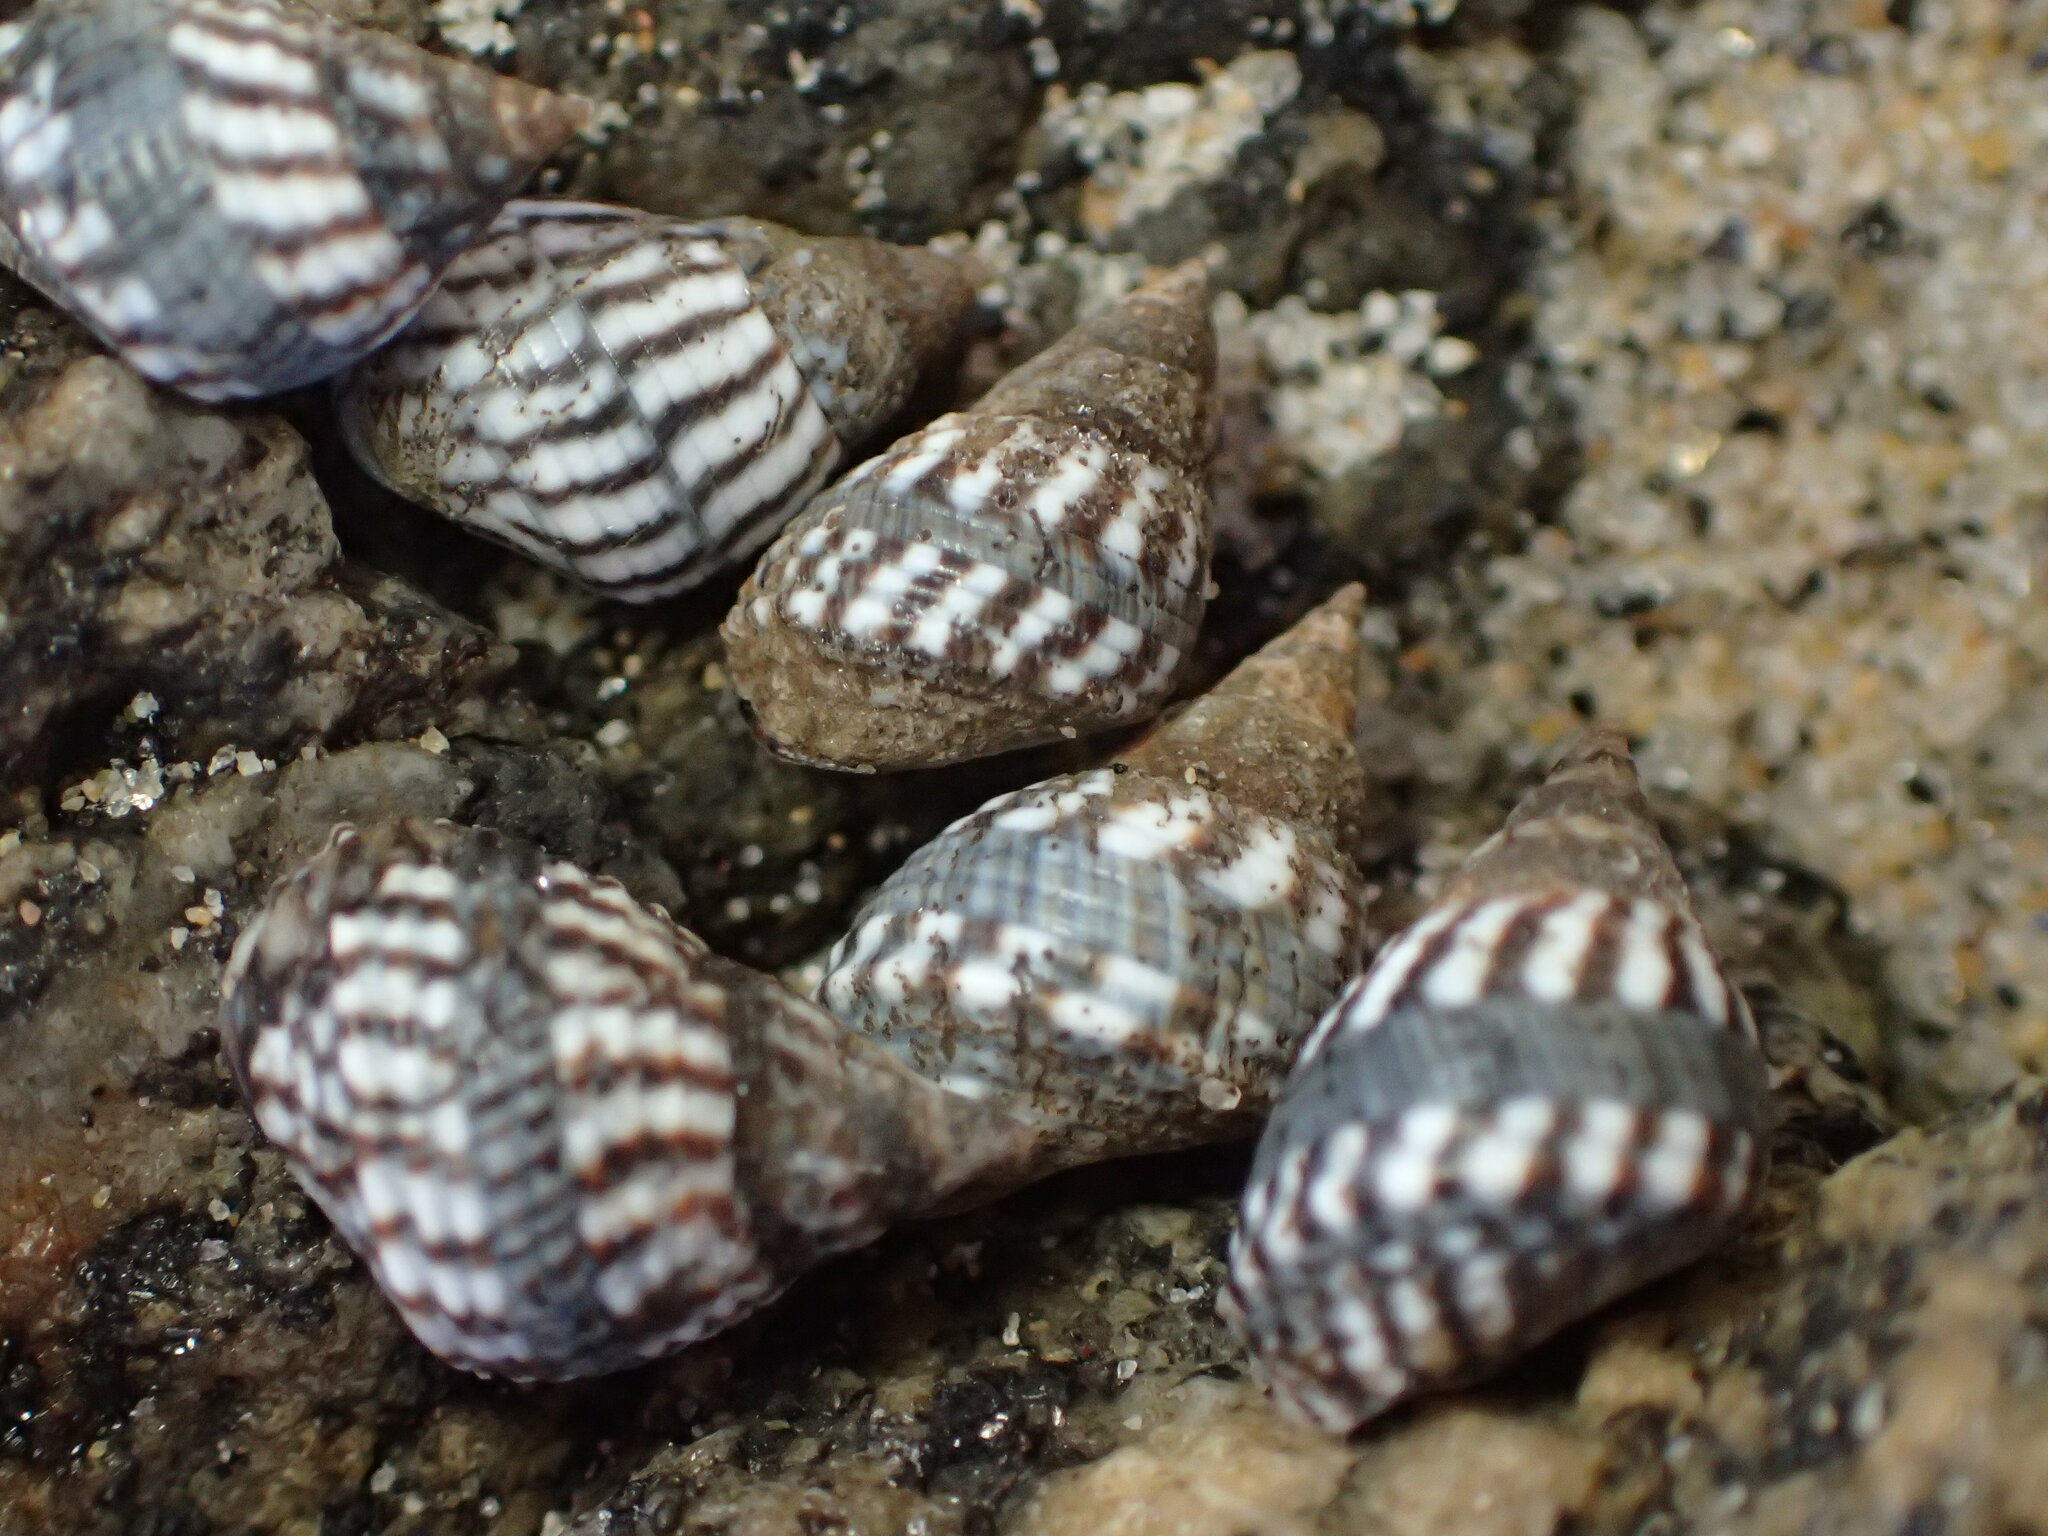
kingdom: Animalia
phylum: Mollusca
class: Gastropoda
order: Littorinimorpha
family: Littorinidae
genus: Echinolittorina
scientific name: Echinolittorina aspera
